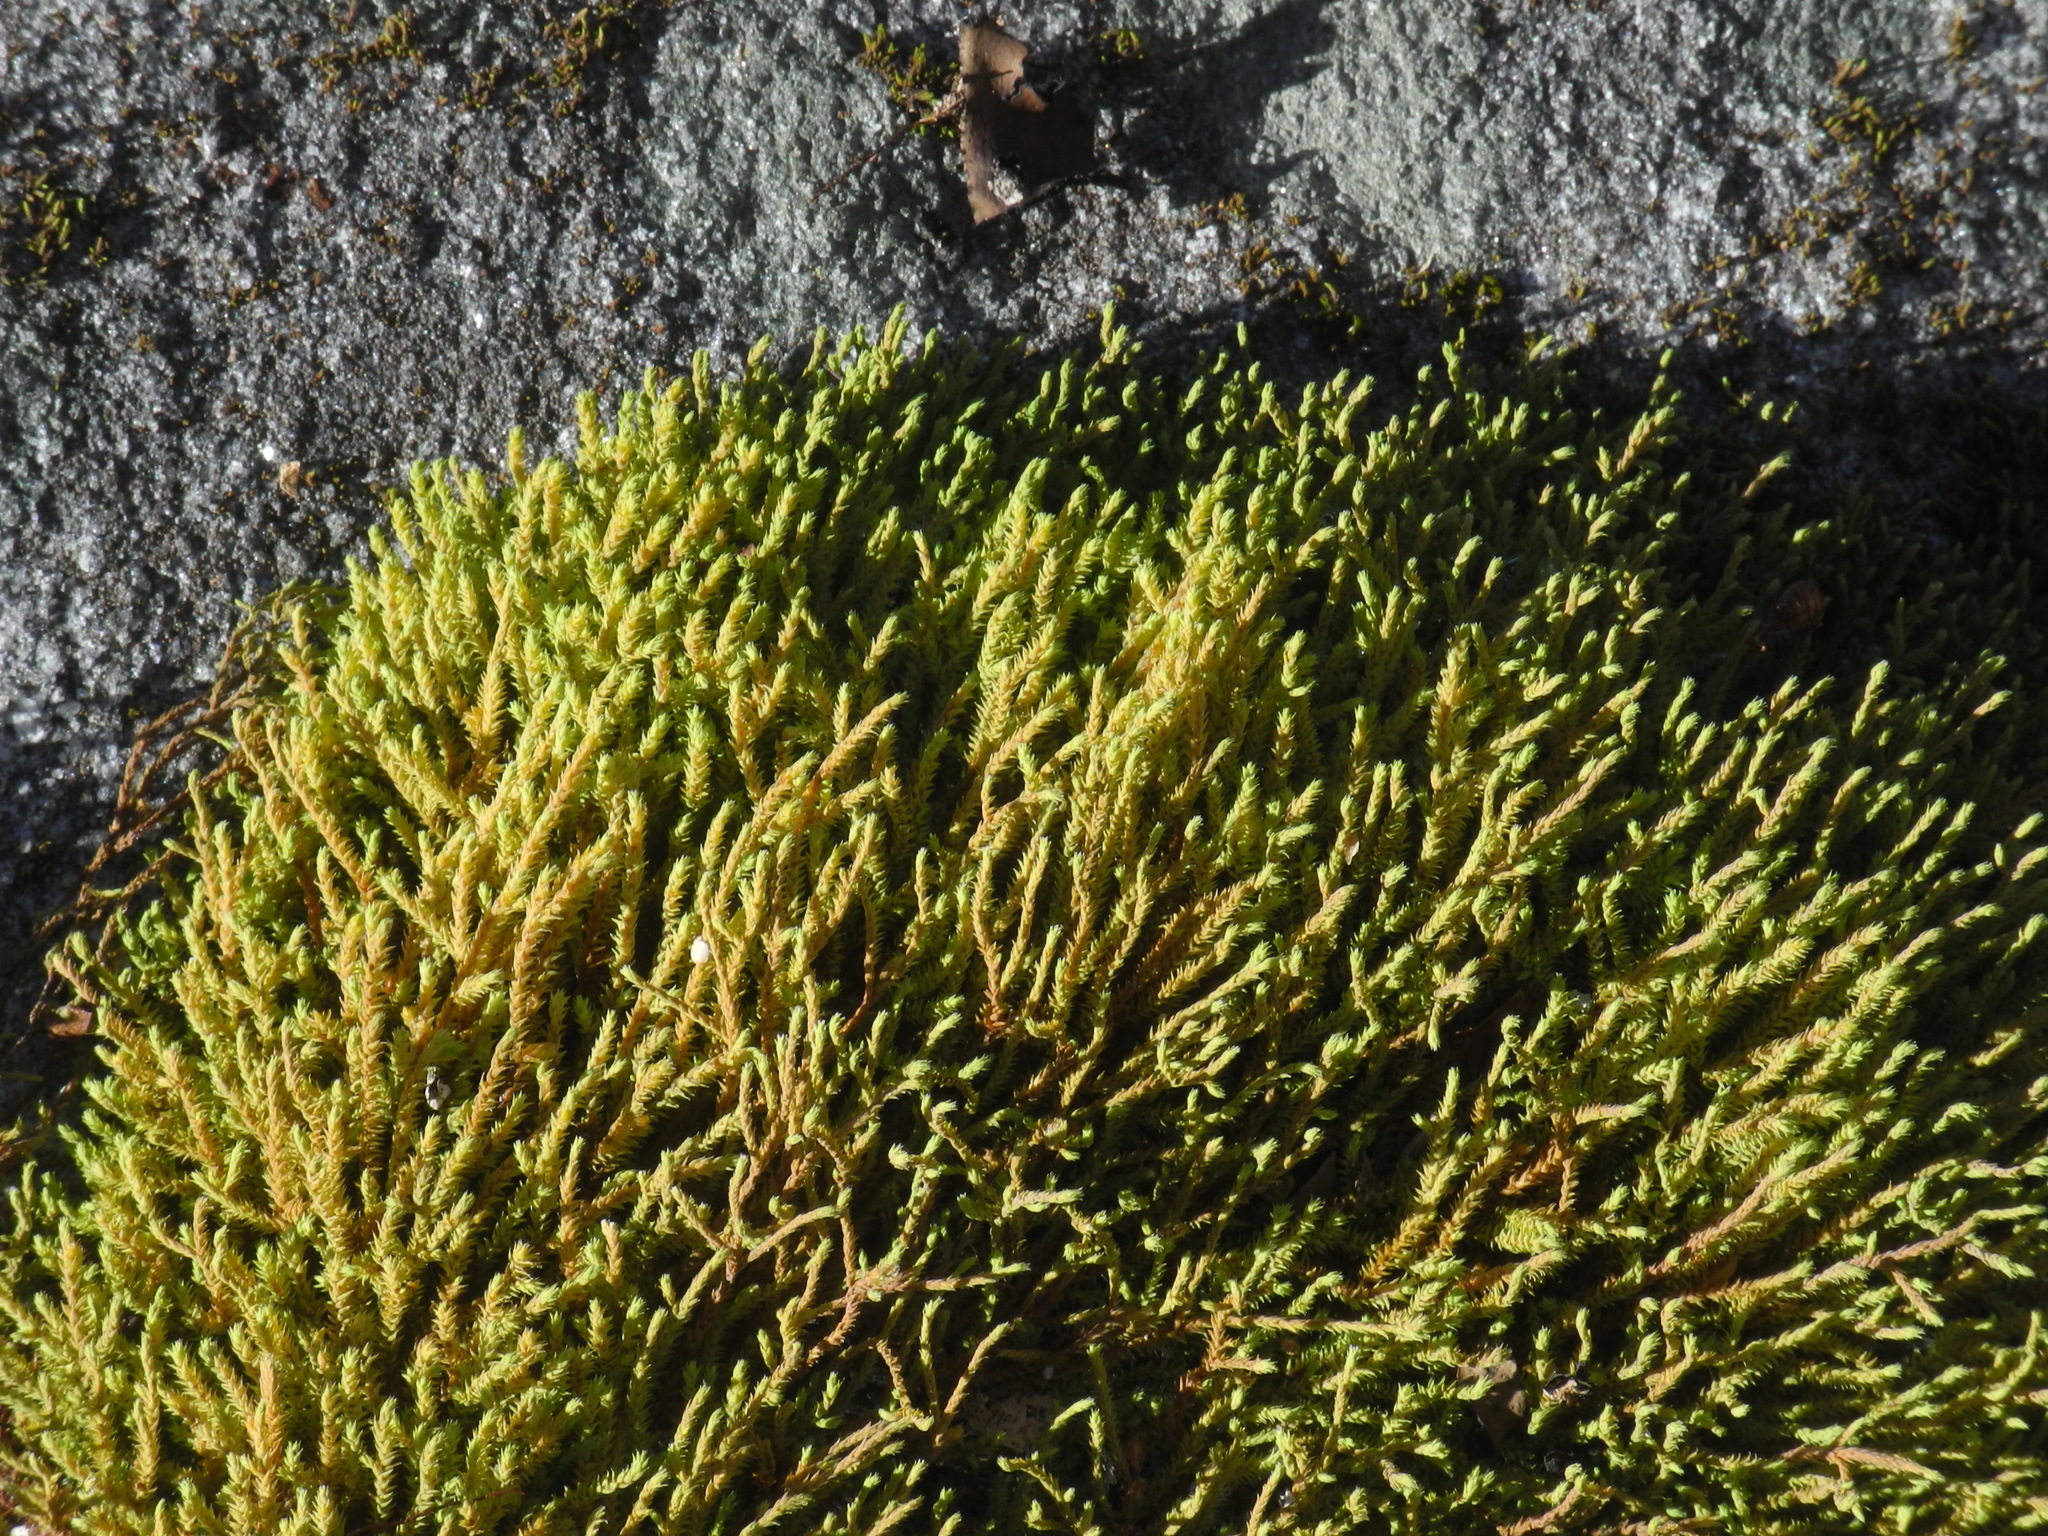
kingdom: Plantae
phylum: Bryophyta
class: Bryopsida
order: Hedwigiales
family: Hedwigiaceae
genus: Hedwigia
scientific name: Hedwigia ciliata
